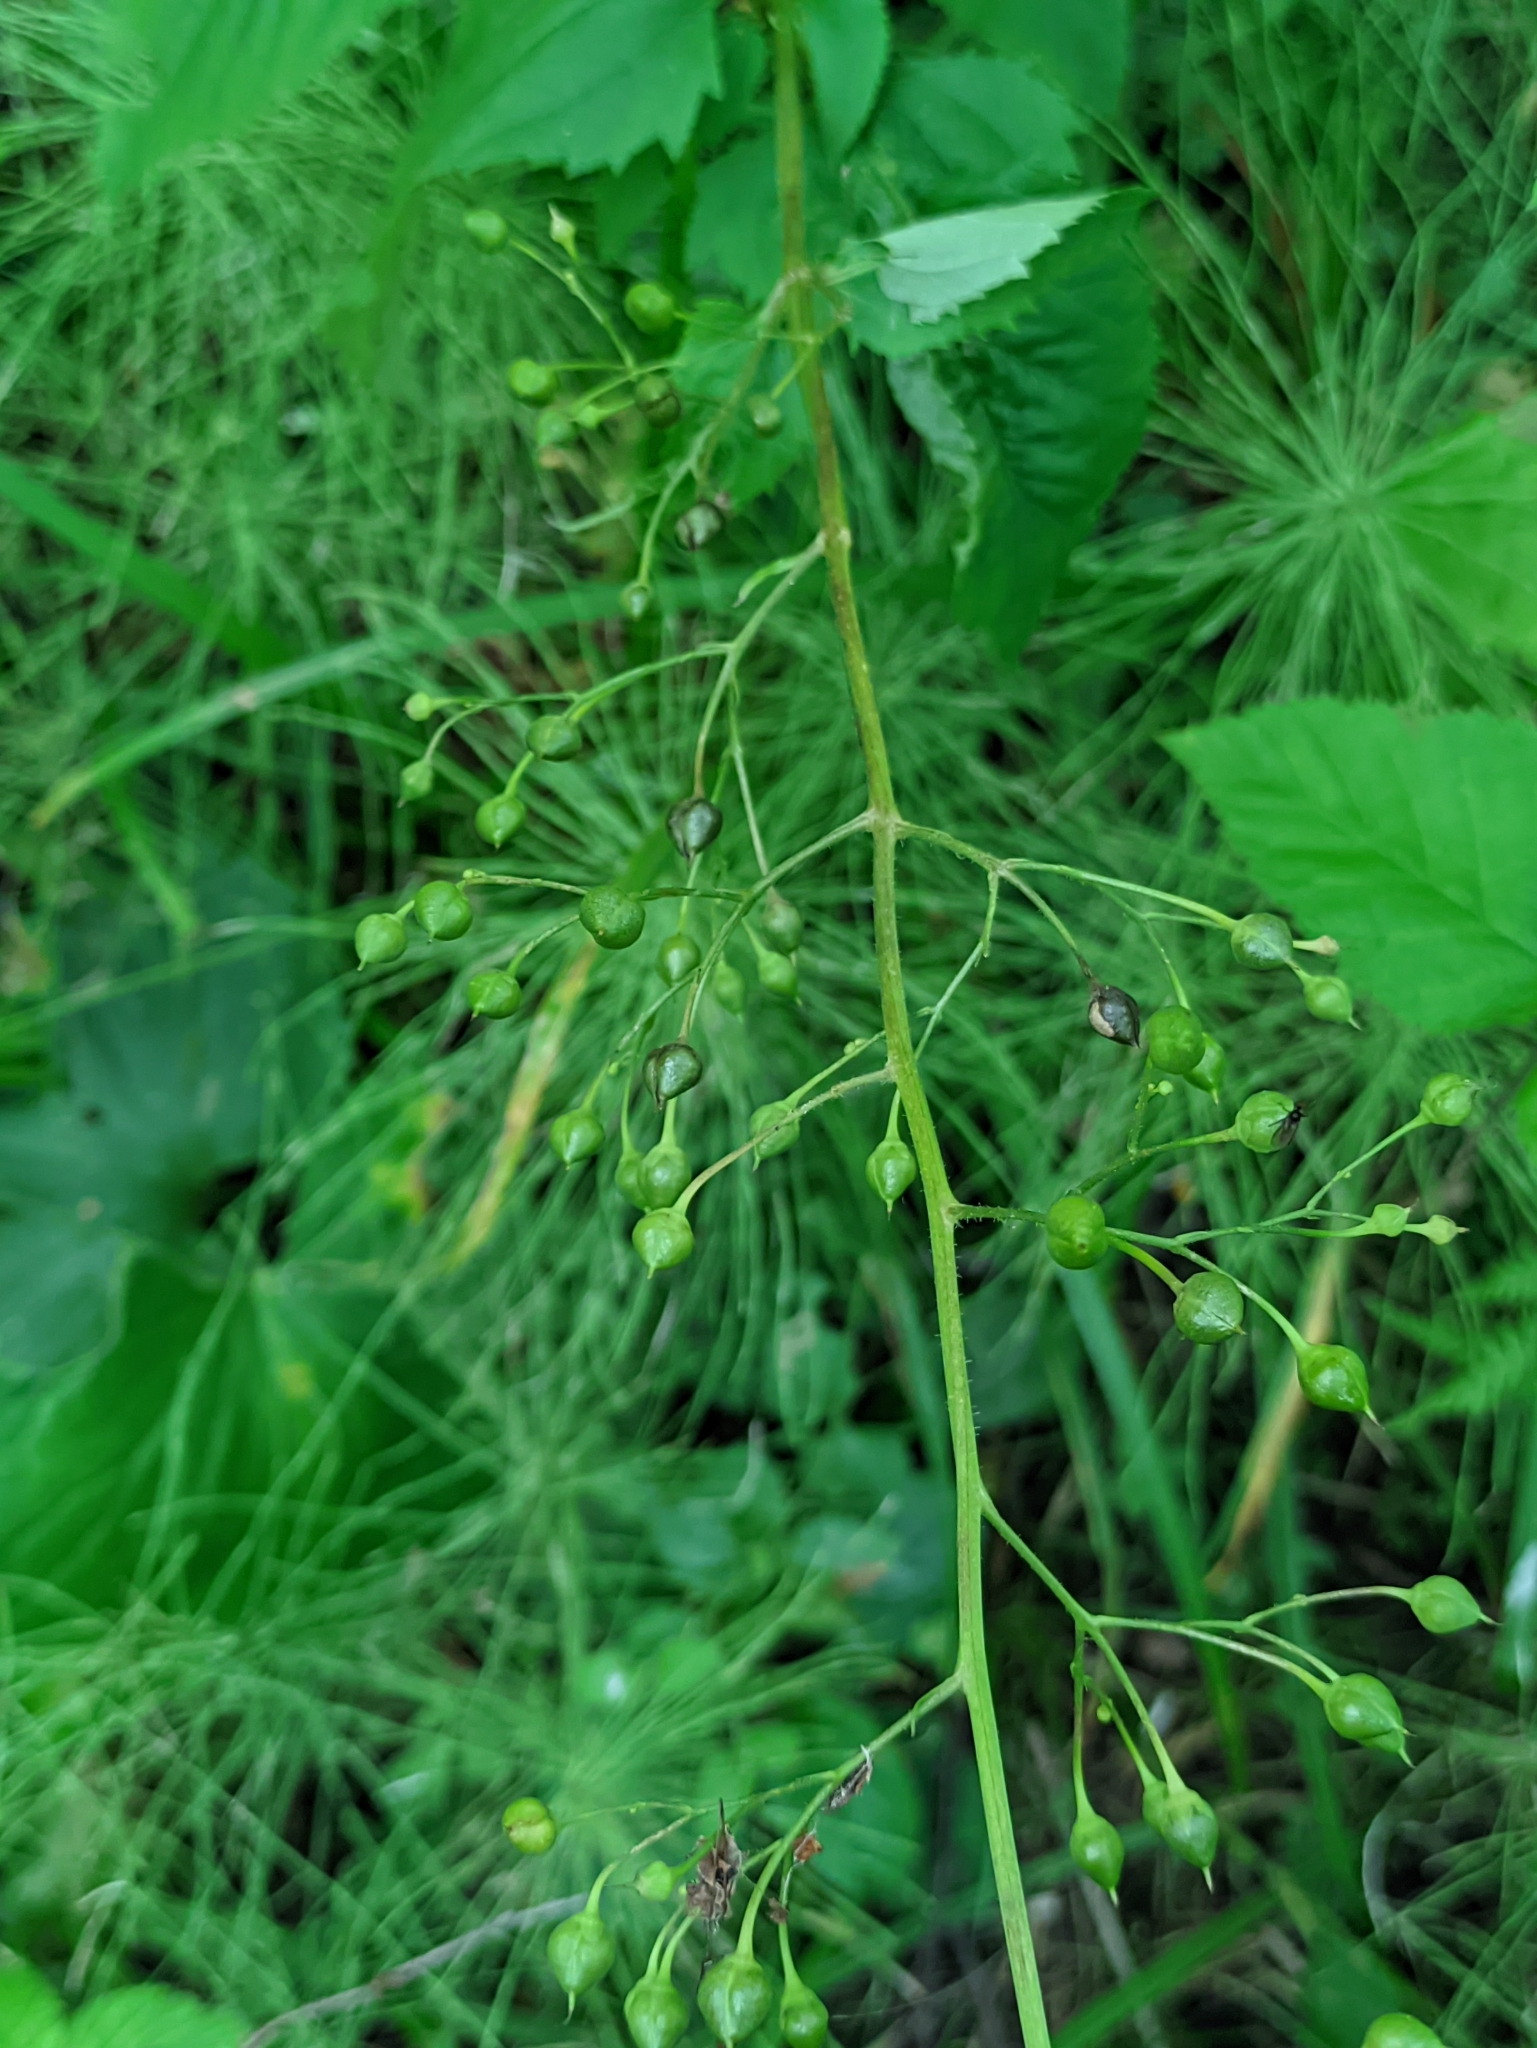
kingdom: Plantae
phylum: Tracheophyta
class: Magnoliopsida
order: Lamiales
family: Scrophulariaceae
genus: Scrophularia
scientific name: Scrophularia nodosa
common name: Common figwort
